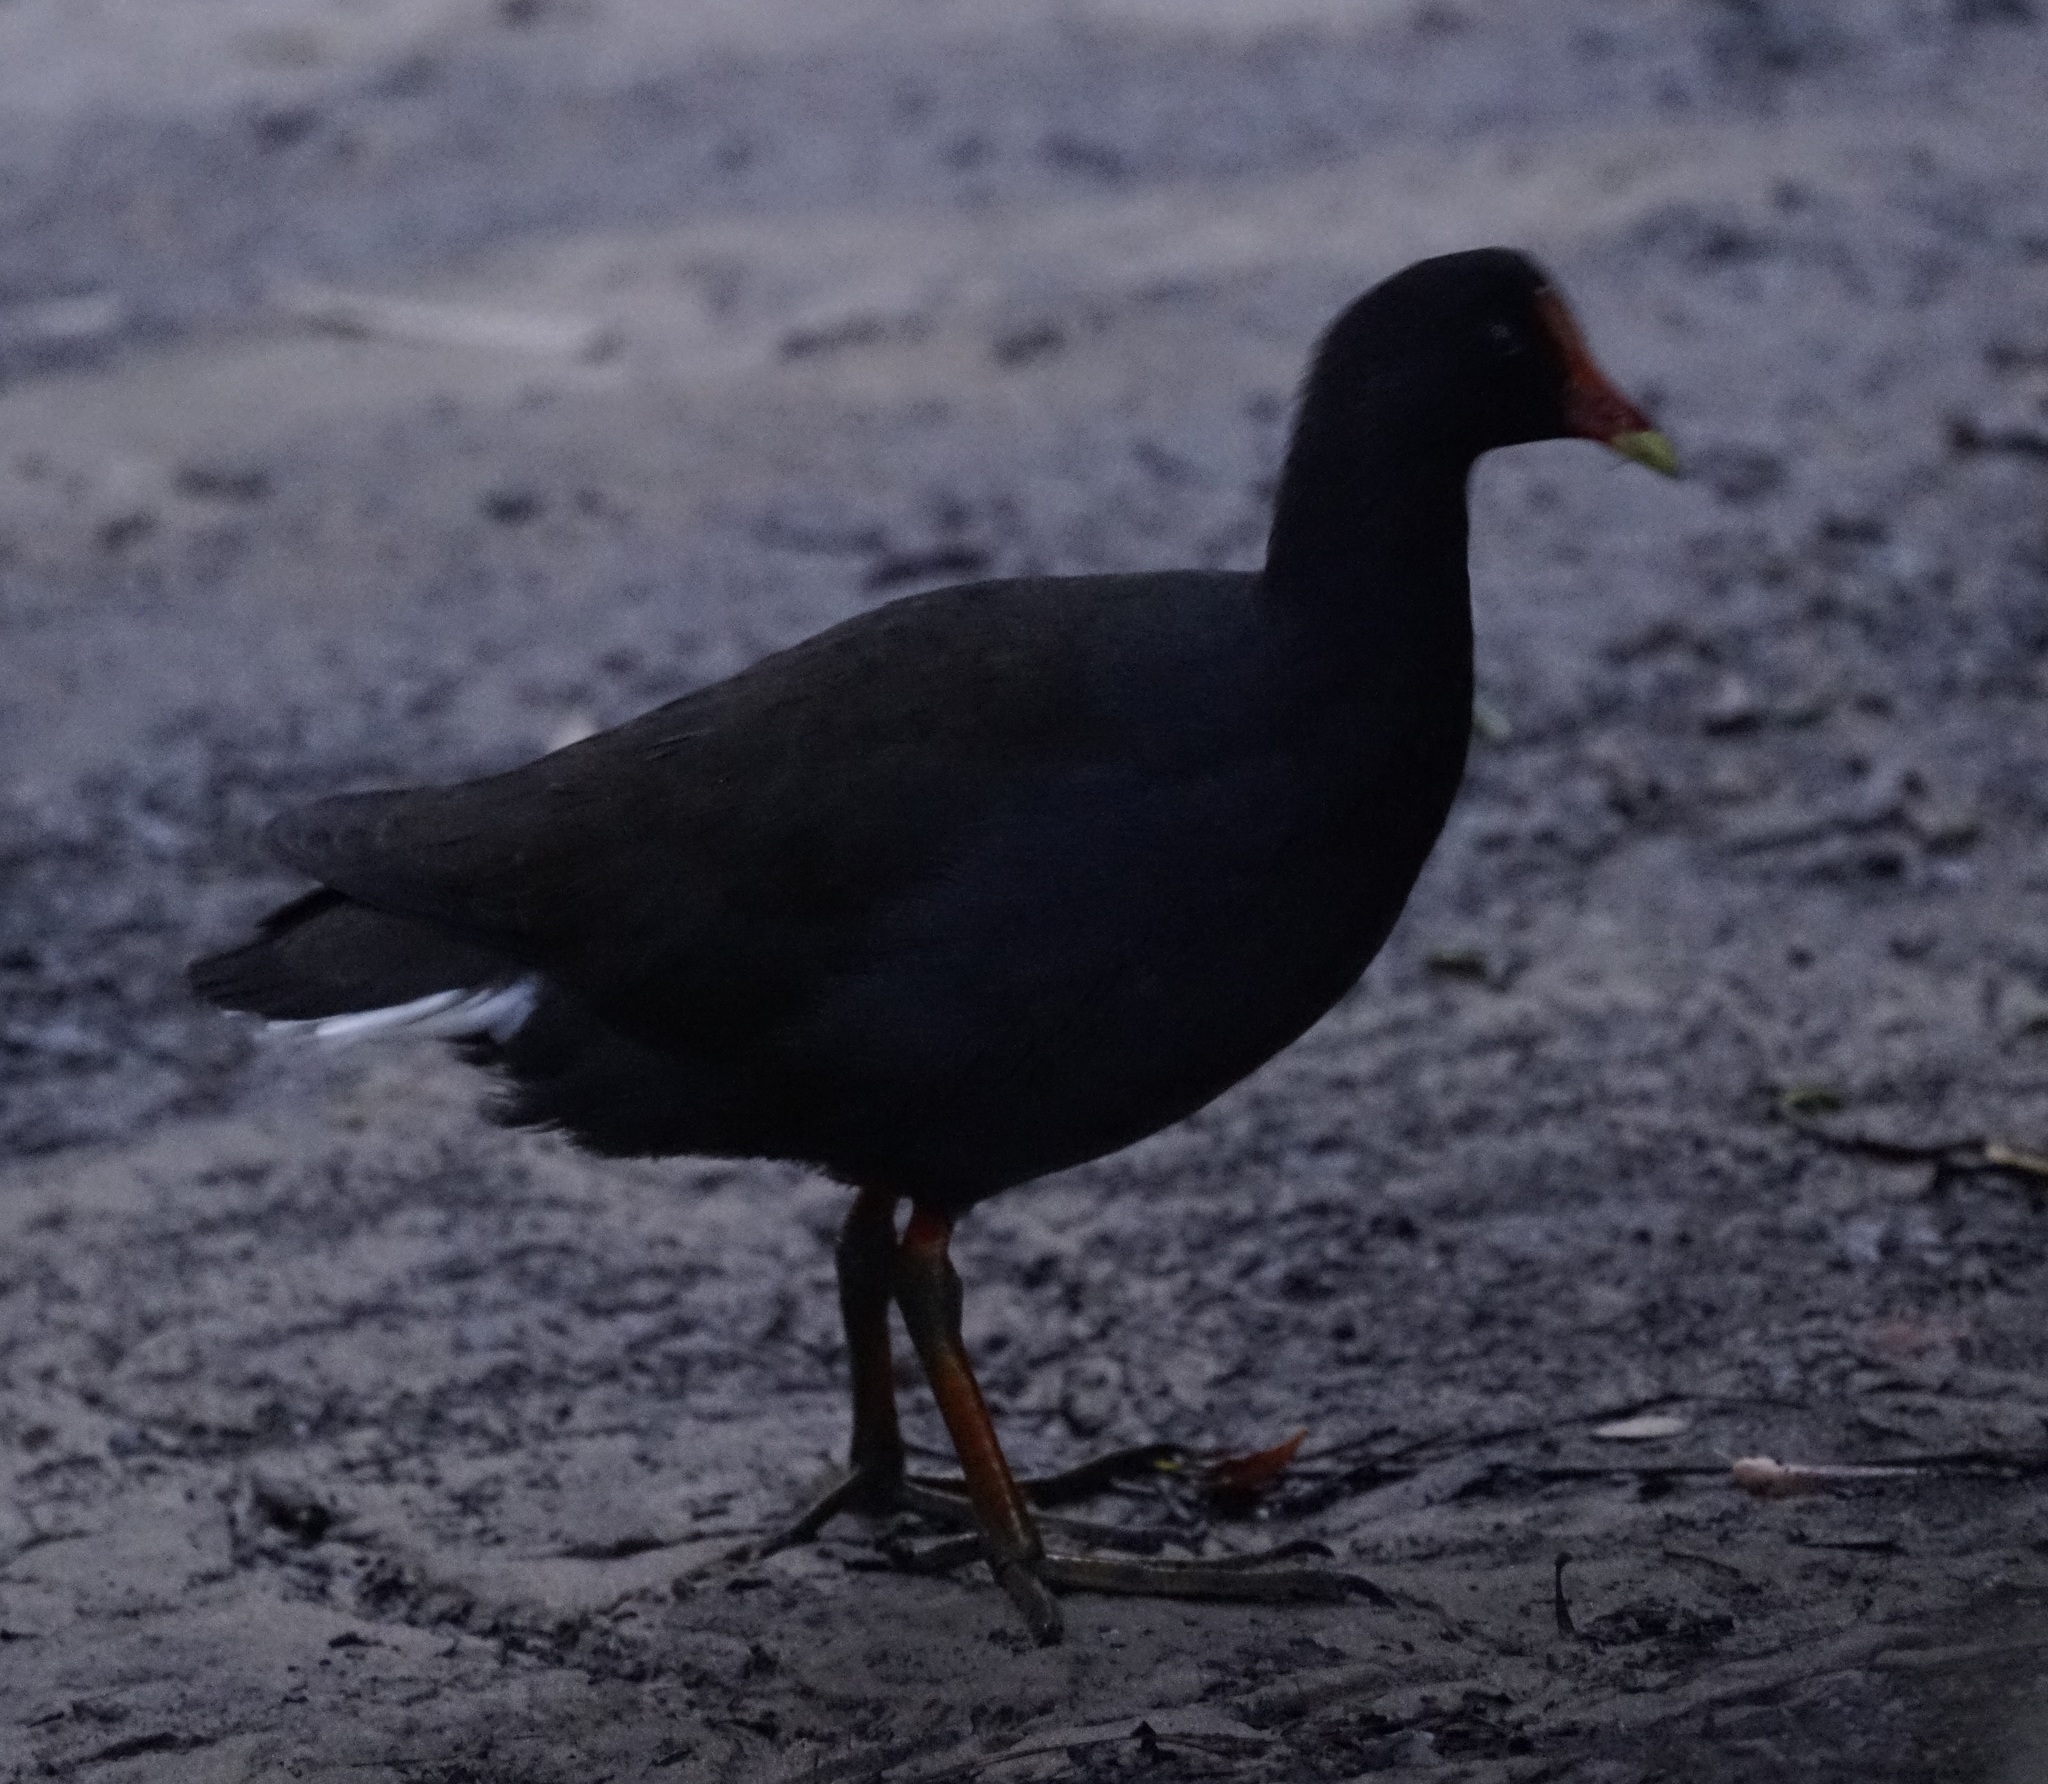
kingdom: Animalia
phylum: Chordata
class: Aves
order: Gruiformes
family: Rallidae
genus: Gallinula
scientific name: Gallinula tenebrosa
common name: Dusky moorhen
